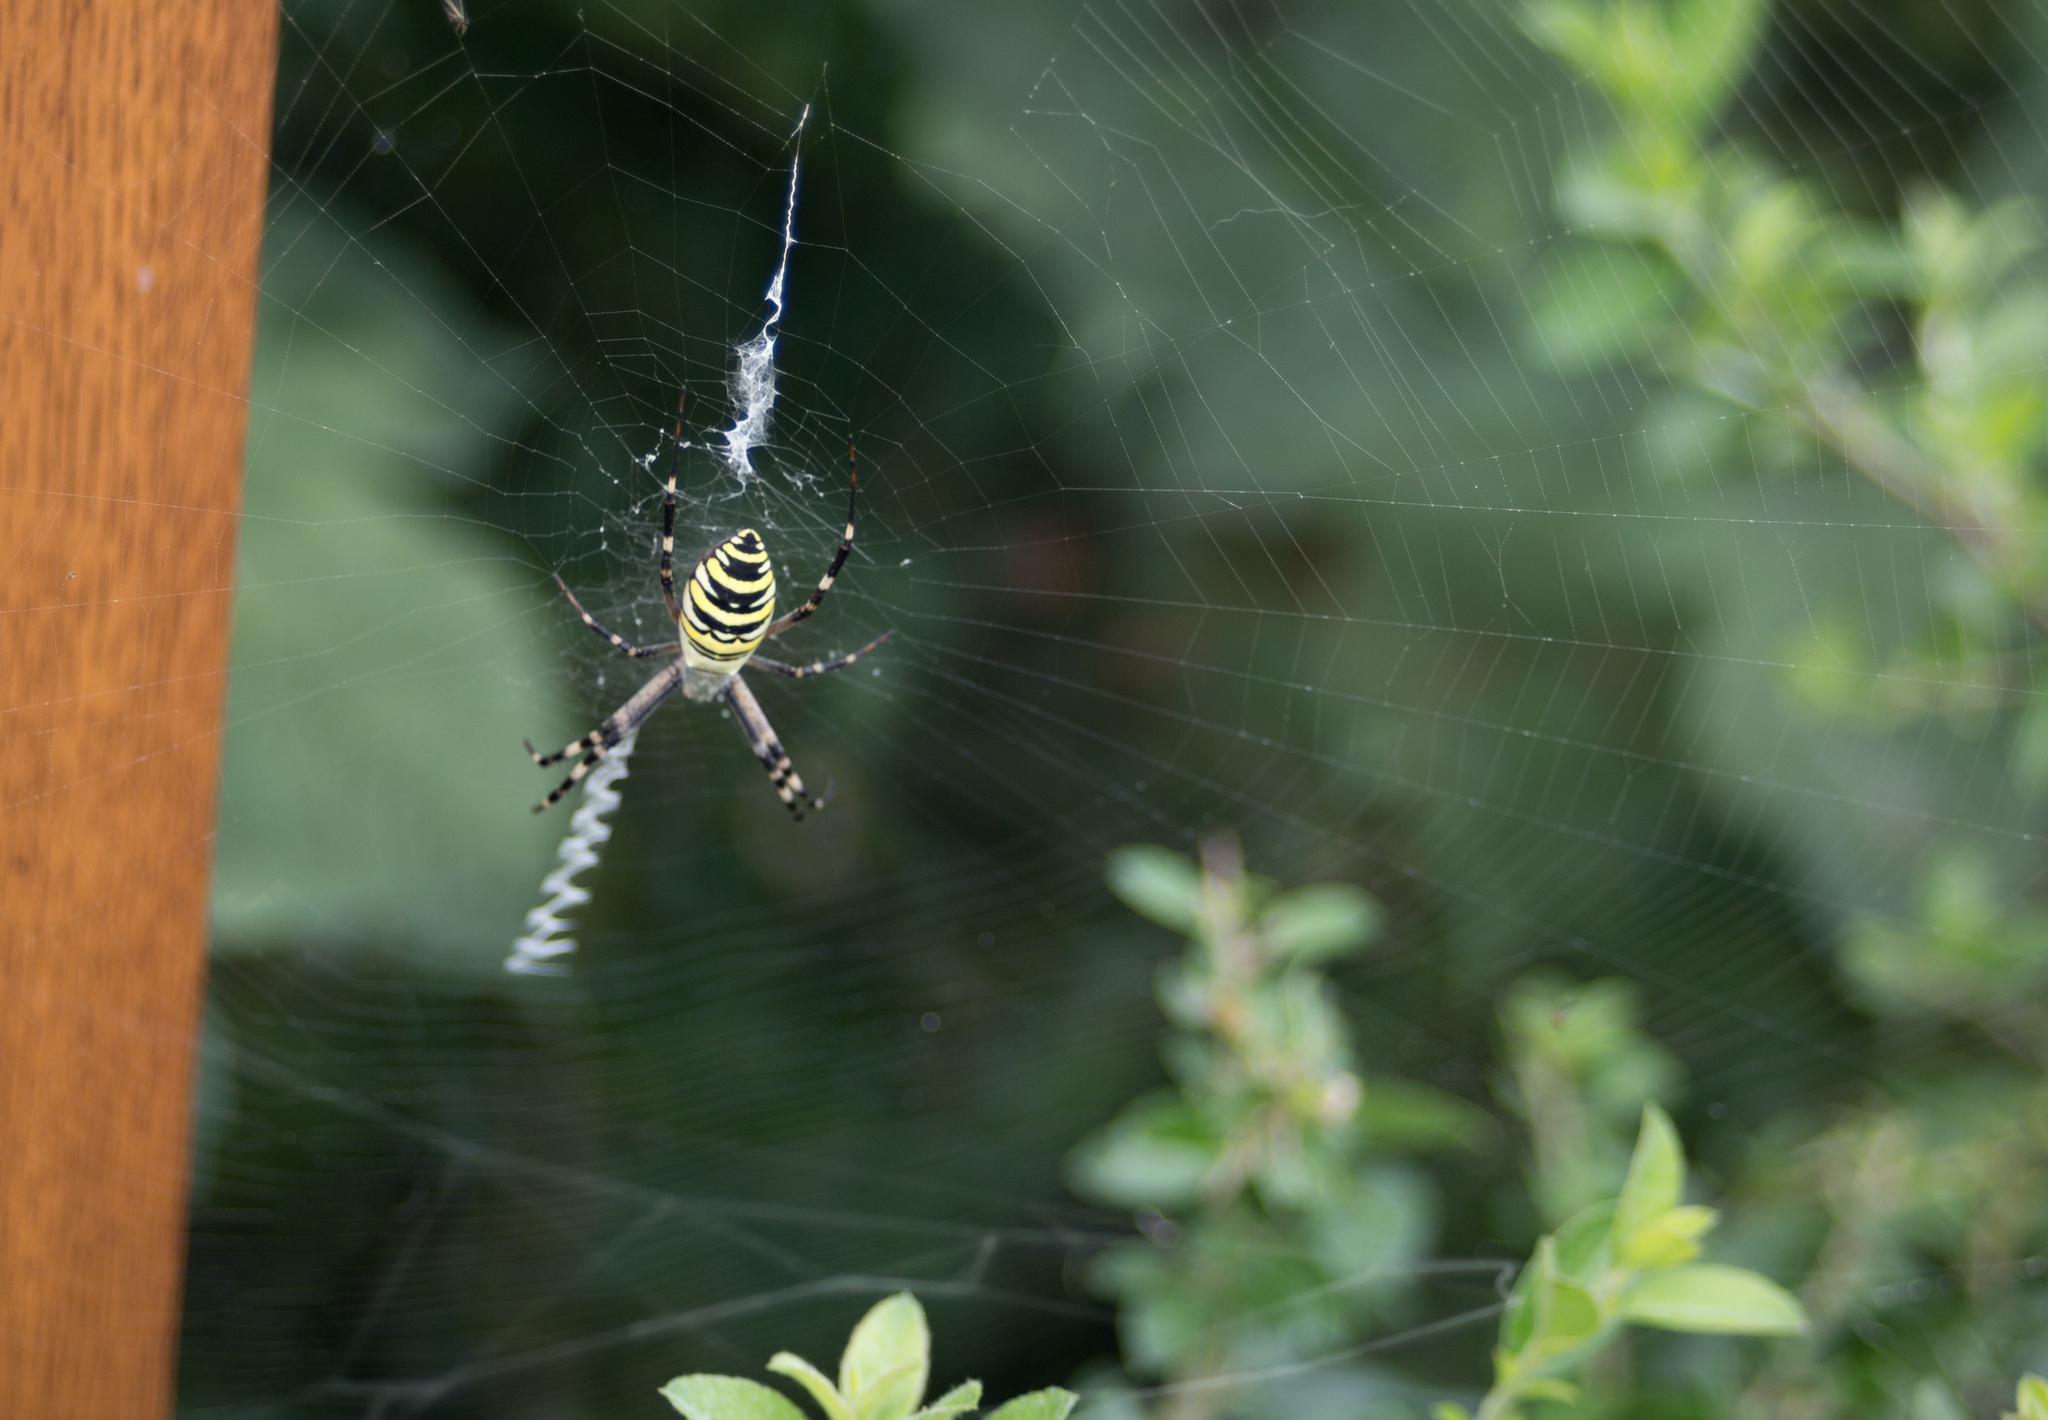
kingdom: Animalia
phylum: Arthropoda
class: Arachnida
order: Araneae
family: Araneidae
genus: Argiope
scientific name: Argiope bruennichi
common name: Wasp spider
